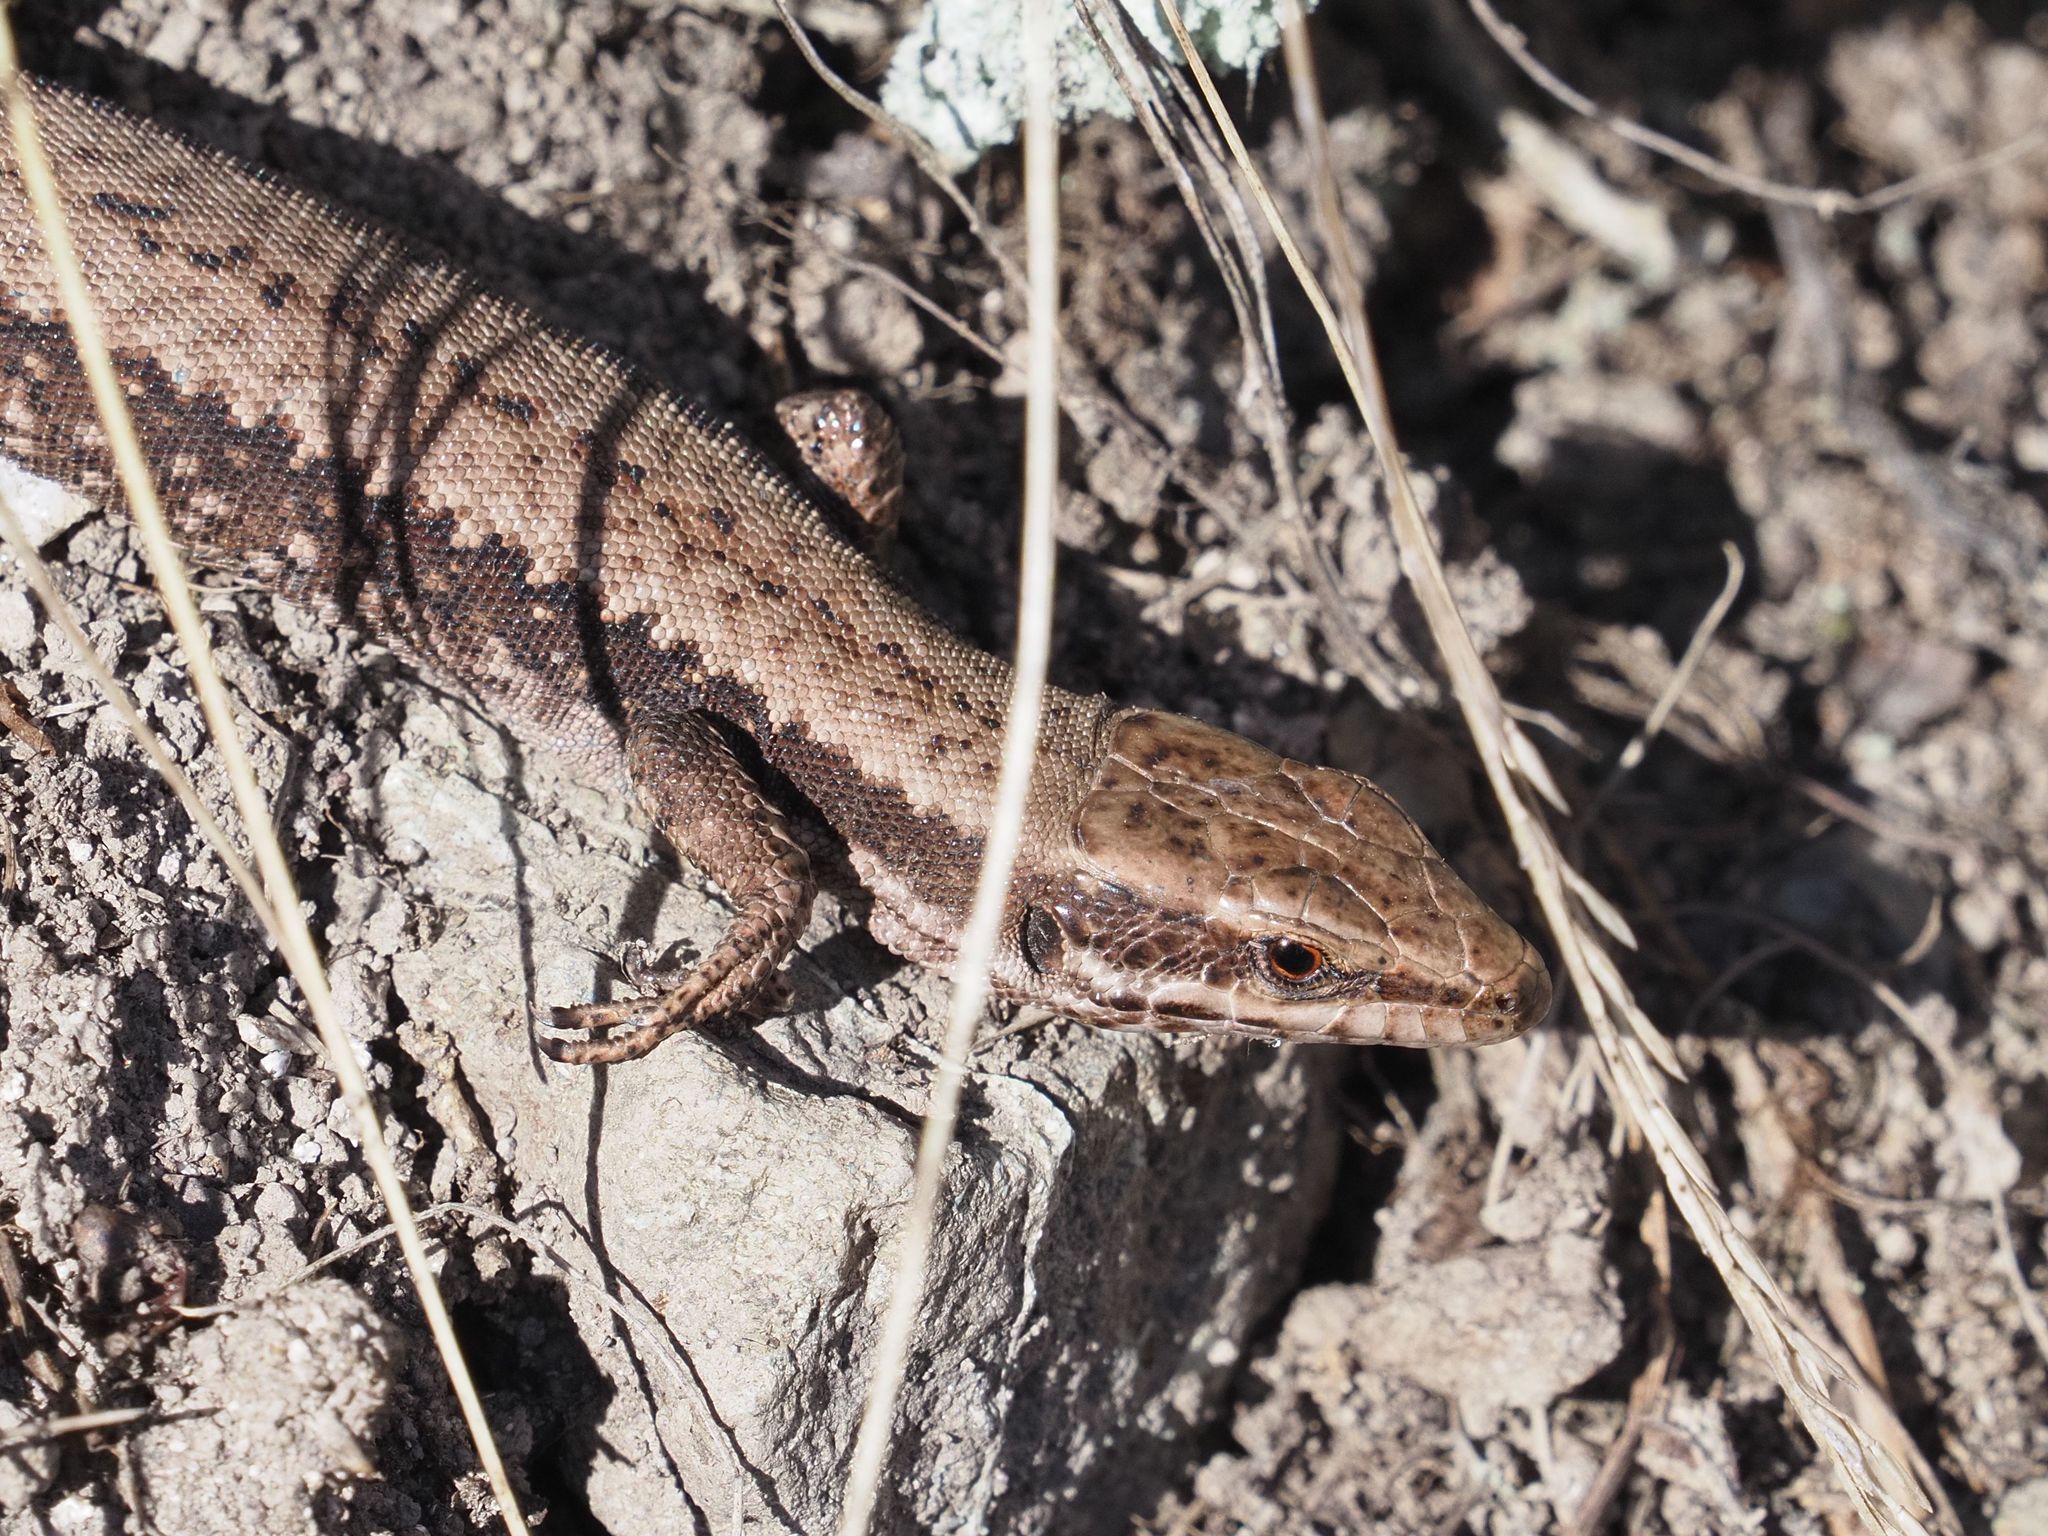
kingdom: Animalia
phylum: Chordata
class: Squamata
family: Lacertidae
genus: Podarcis
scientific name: Podarcis muralis
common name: Common wall lizard
